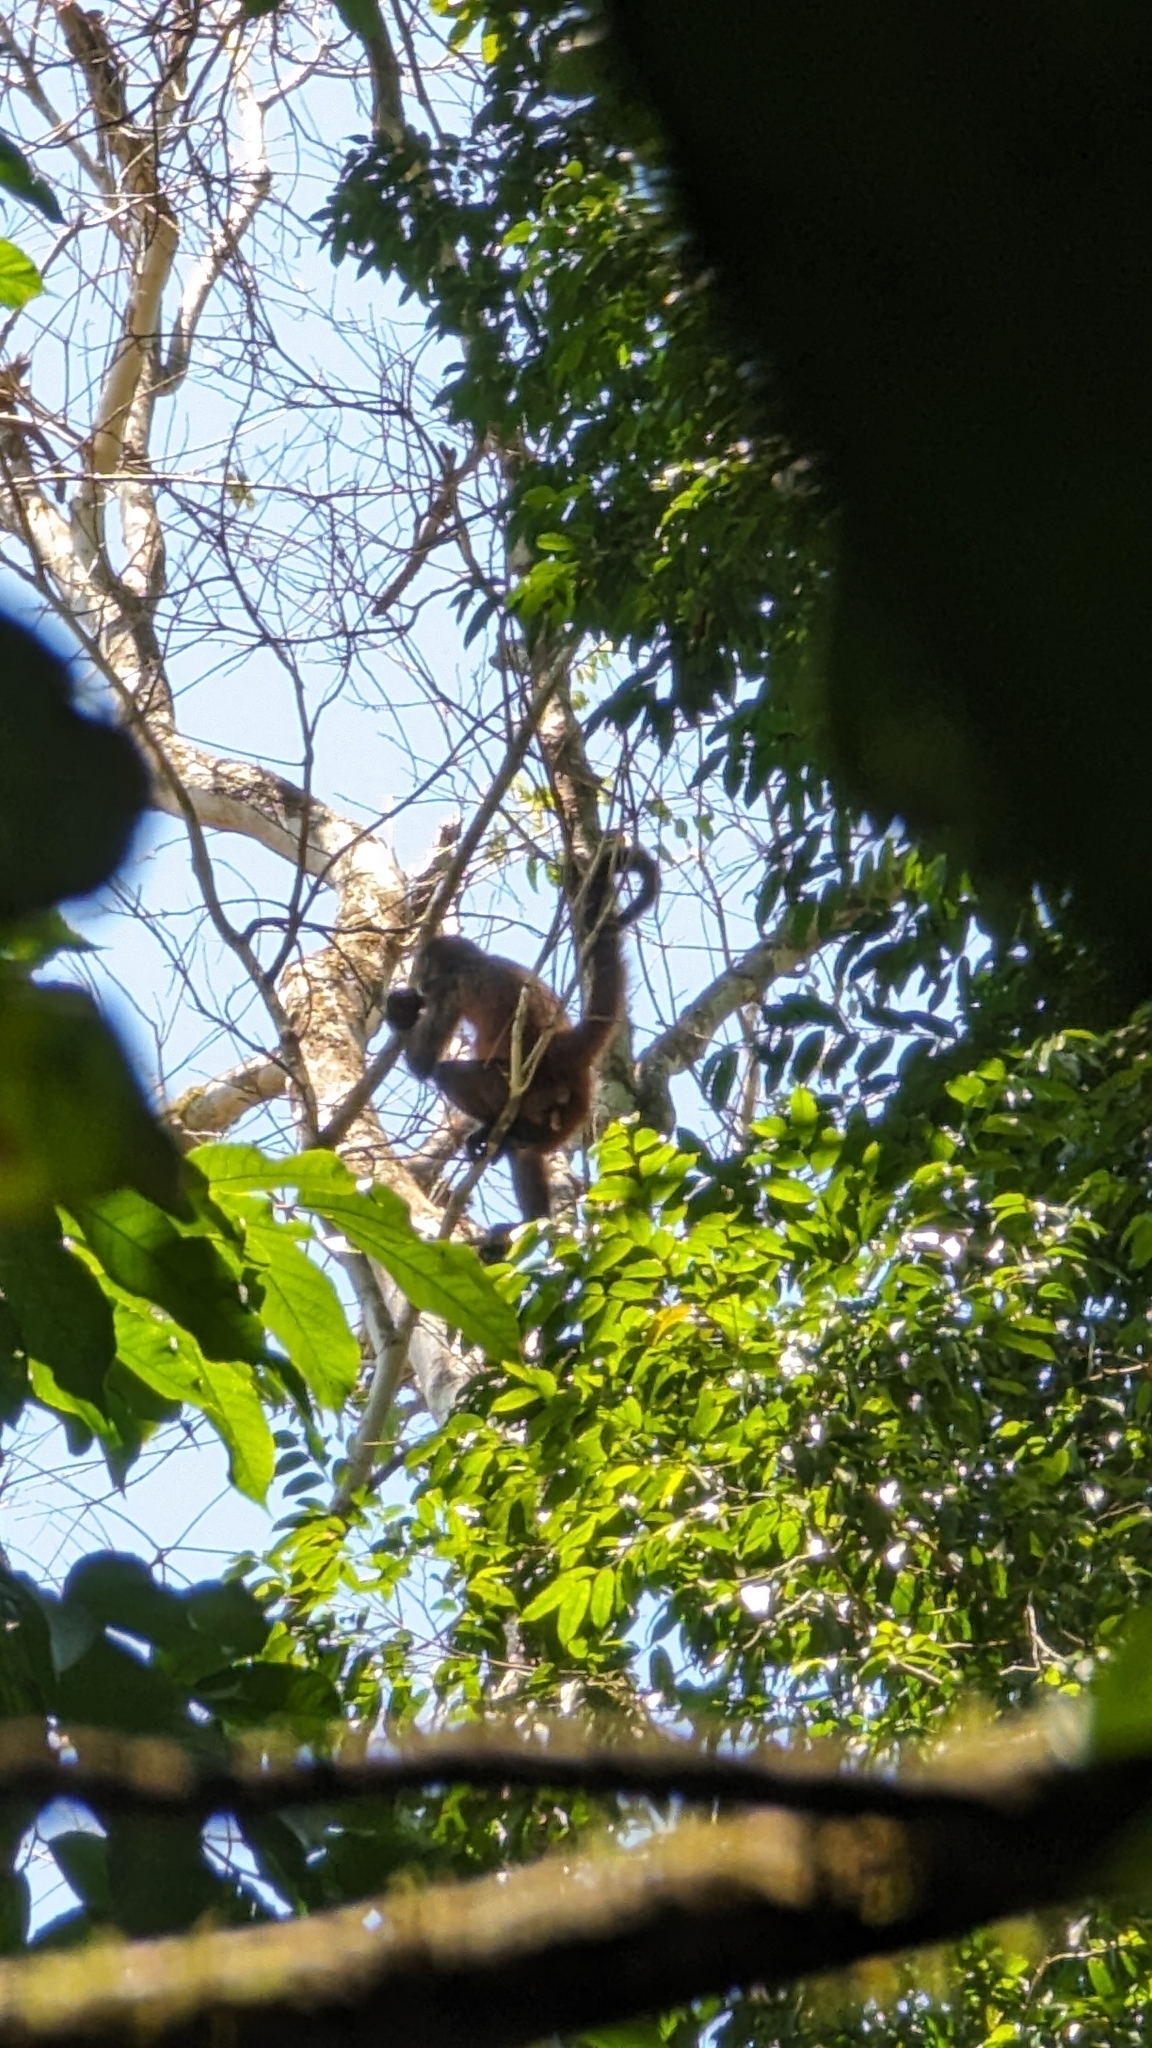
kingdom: Animalia
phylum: Chordata
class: Mammalia
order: Primates
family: Atelidae
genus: Ateles
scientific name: Ateles geoffroyi
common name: Black-handed spider monkey
